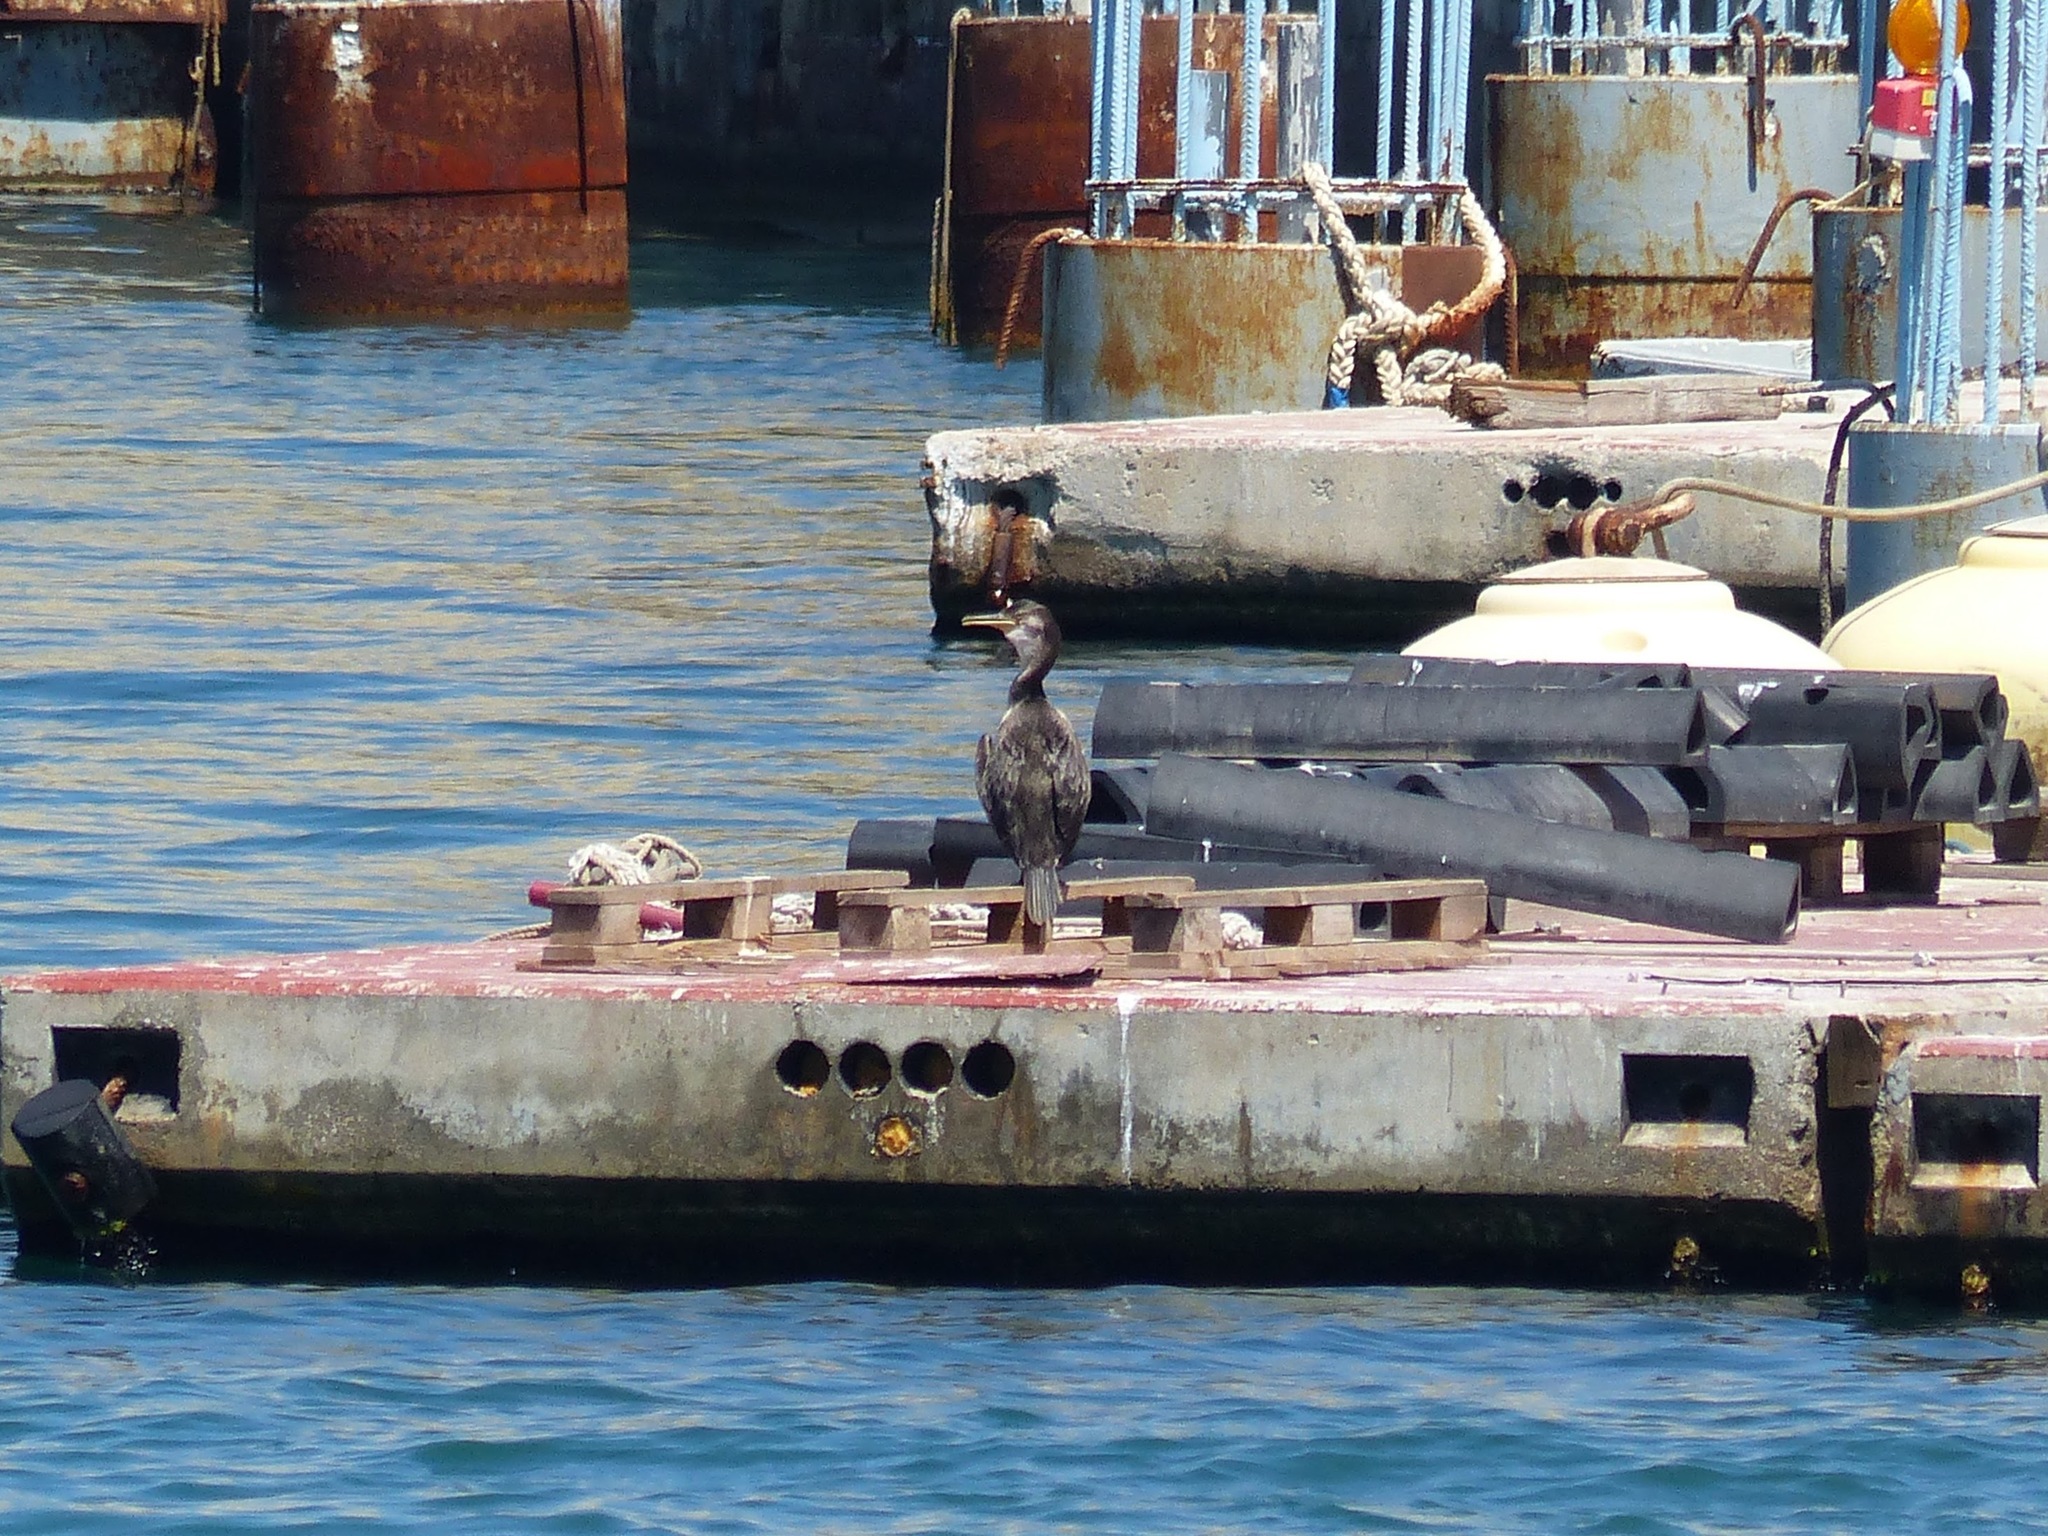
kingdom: Animalia
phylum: Chordata
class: Aves
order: Suliformes
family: Phalacrocoracidae
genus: Phalacrocorax
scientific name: Phalacrocorax aristotelis
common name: European shag
